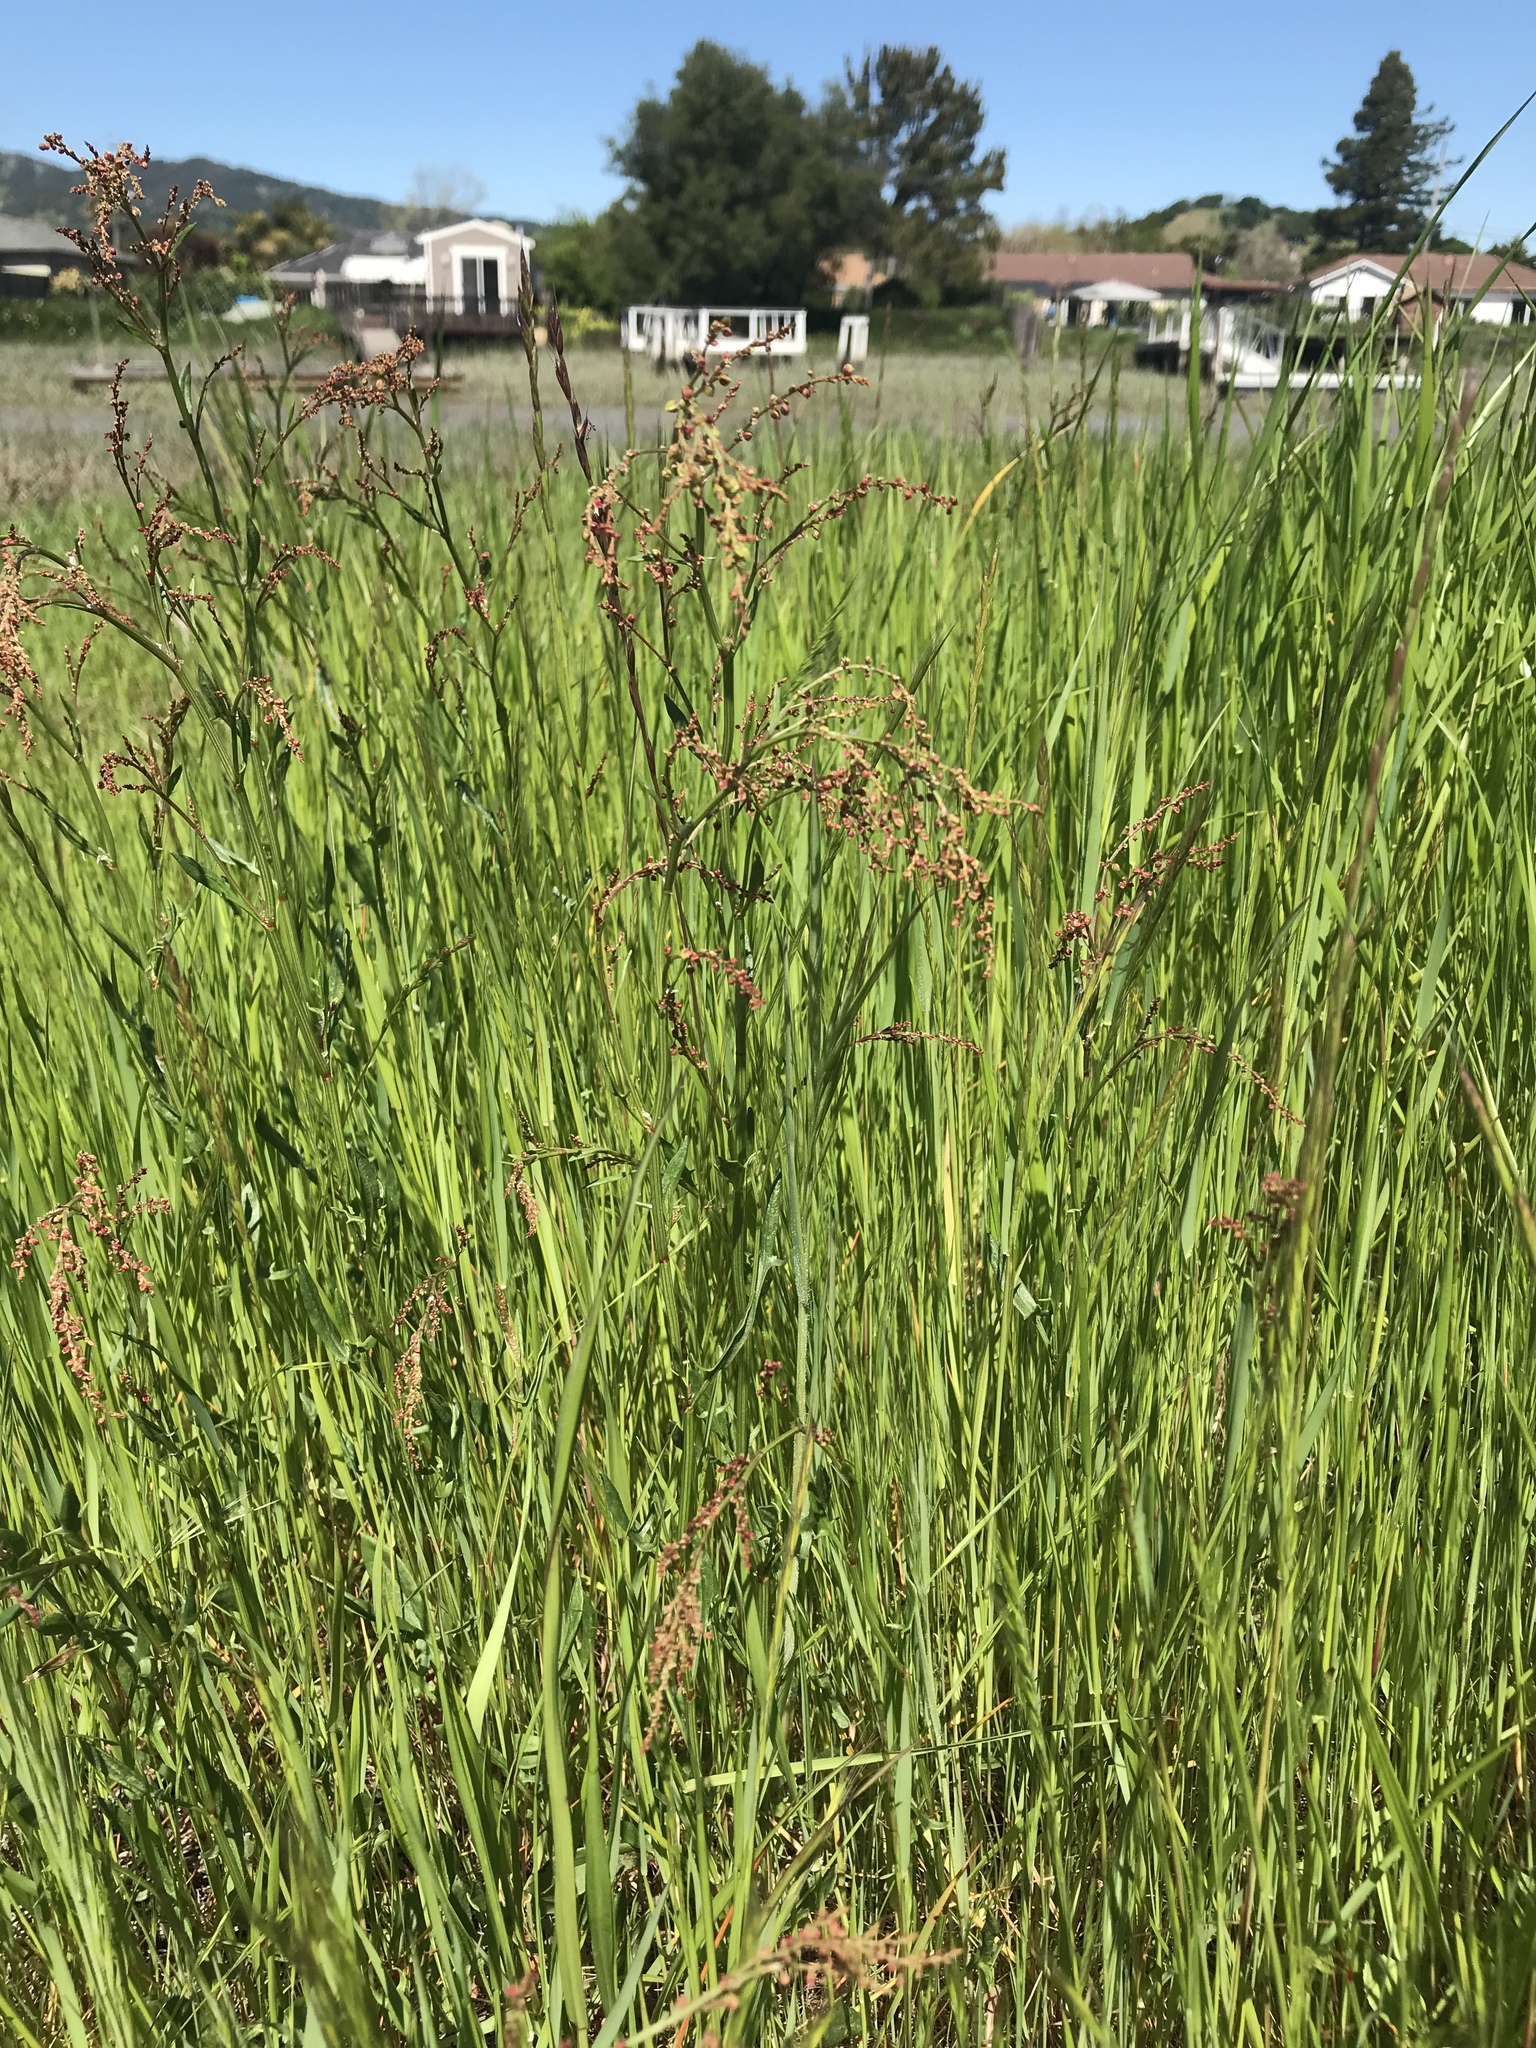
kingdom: Plantae
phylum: Tracheophyta
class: Magnoliopsida
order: Caryophyllales
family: Polygonaceae
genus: Rumex
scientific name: Rumex acetosella
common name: Common sheep sorrel
